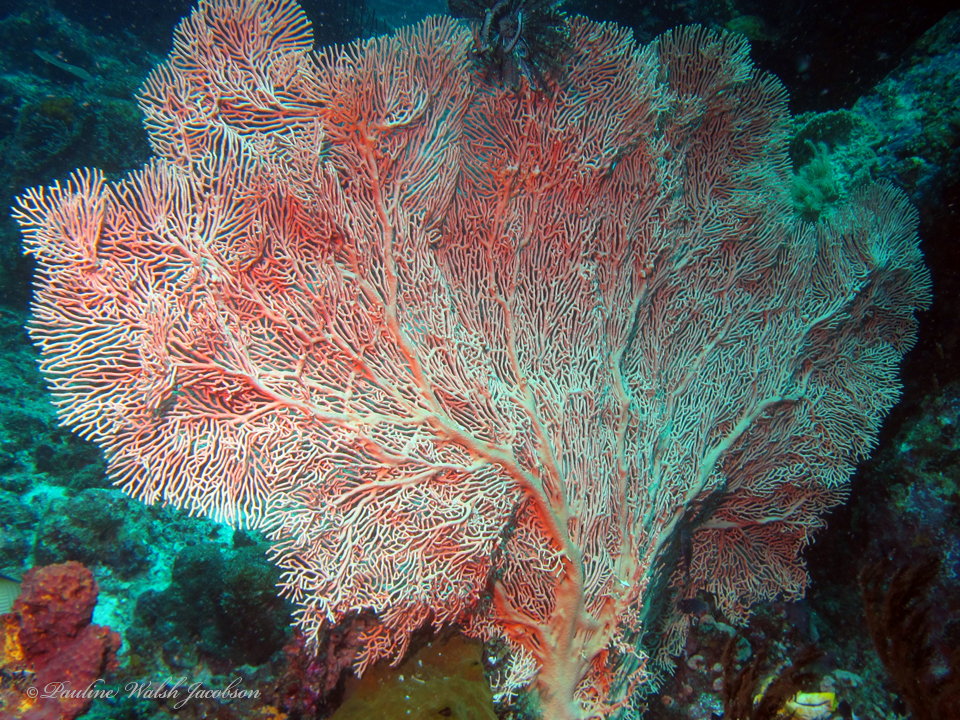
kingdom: Animalia
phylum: Cnidaria
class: Anthozoa
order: Malacalcyonacea
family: Subergorgiidae
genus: Annella
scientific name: Annella mollis
